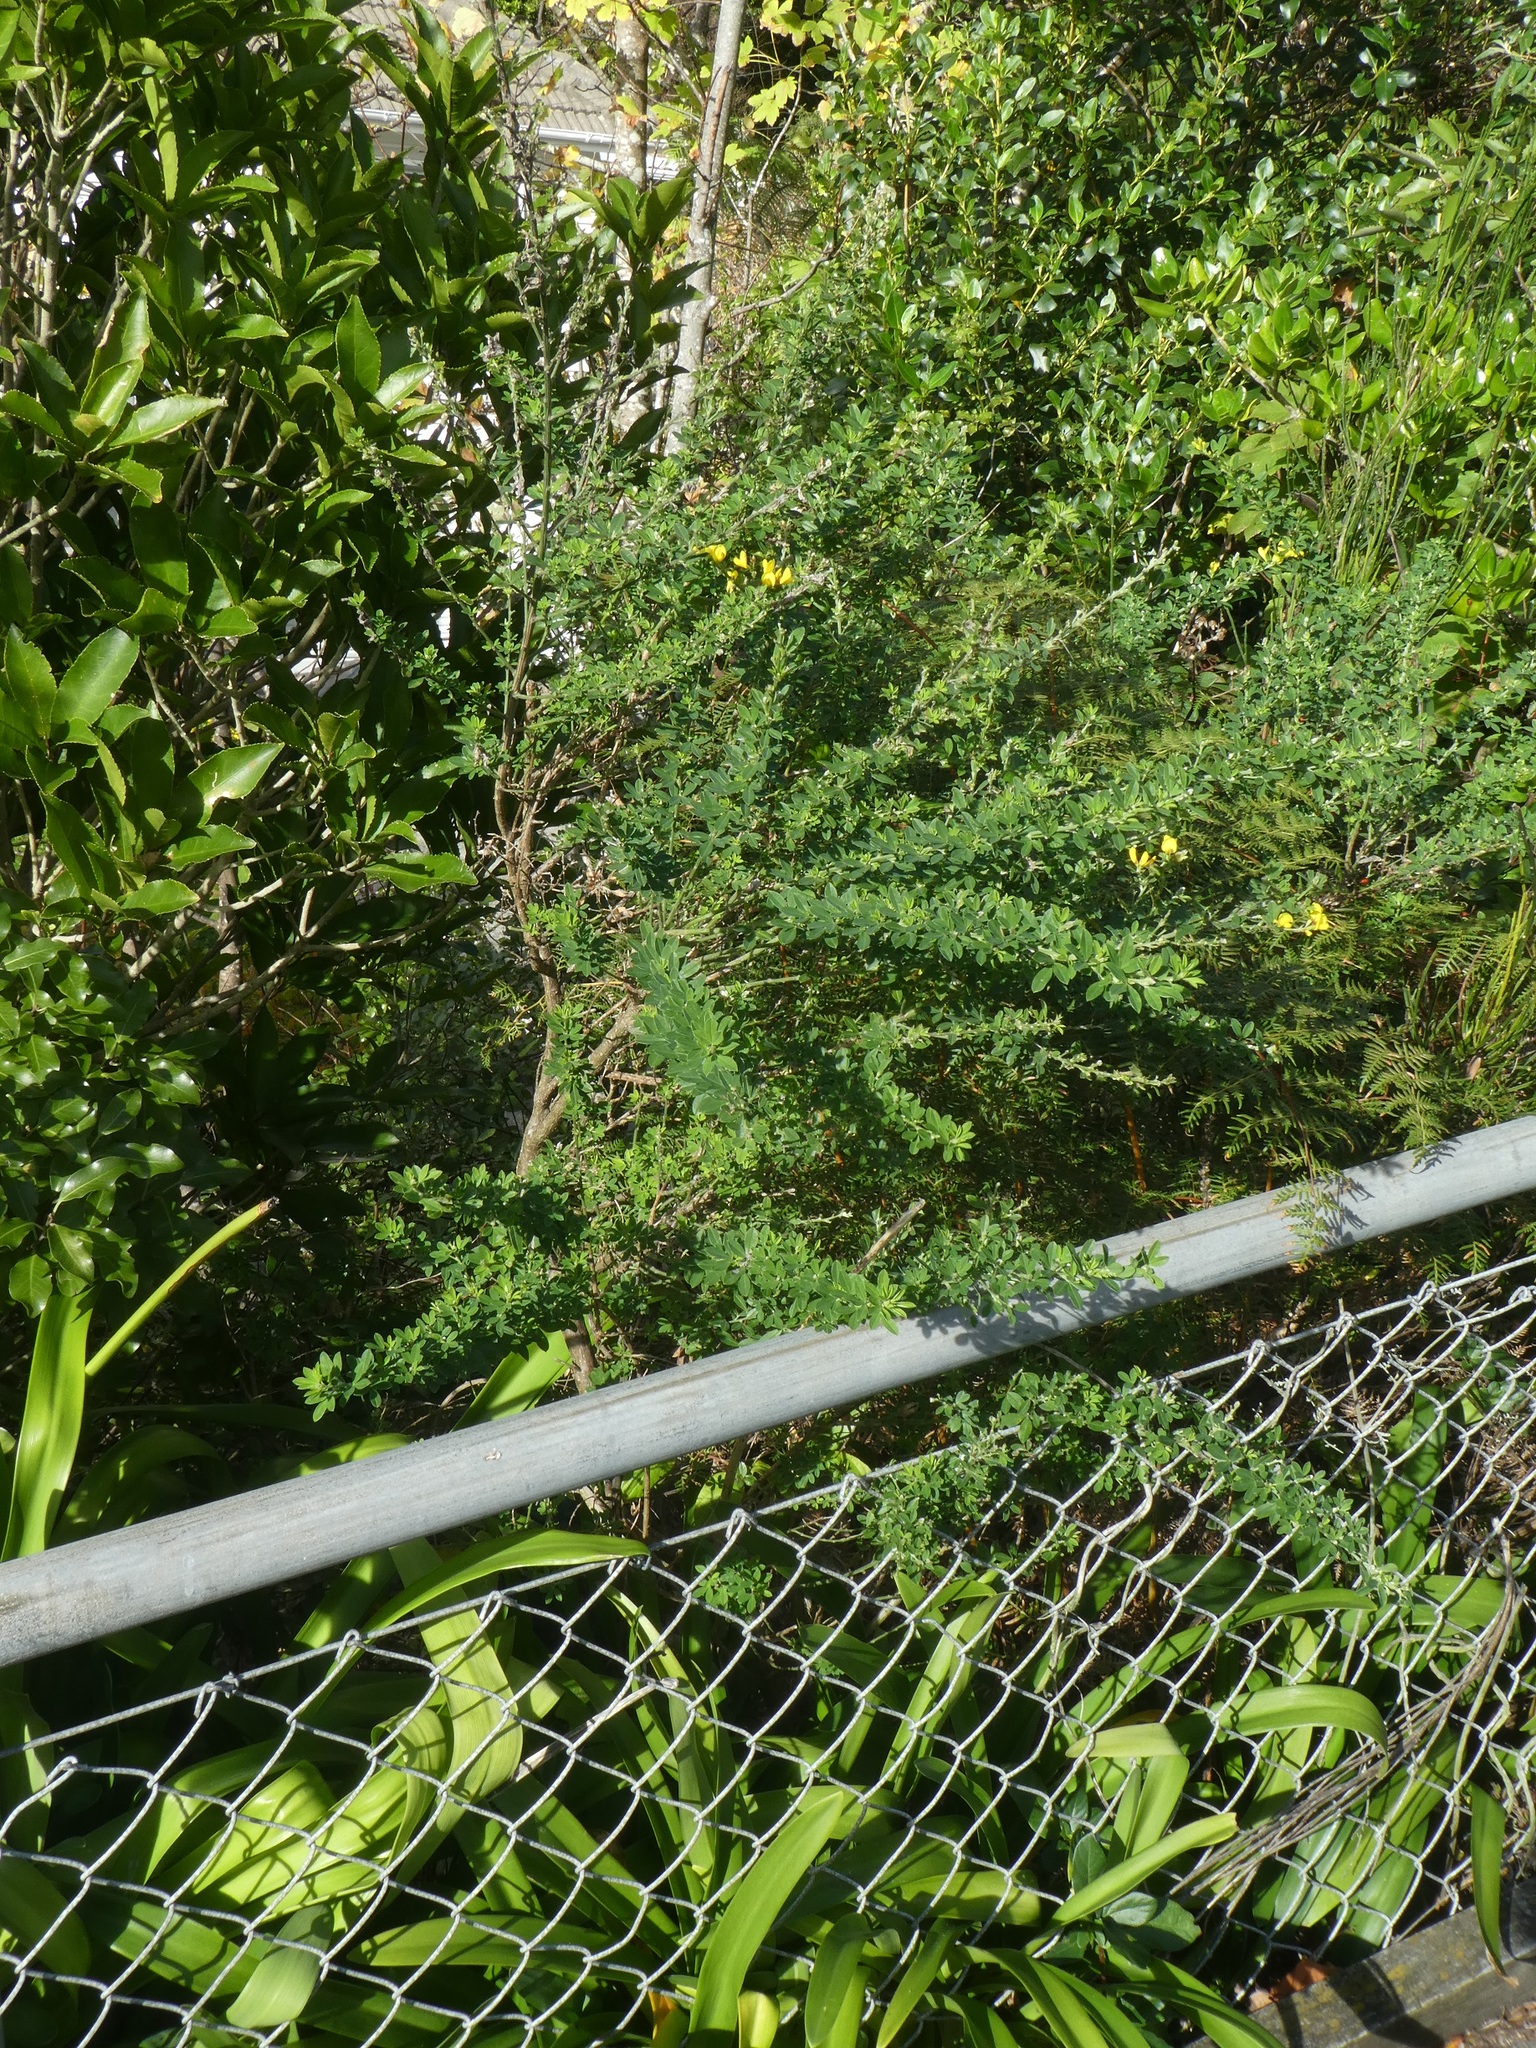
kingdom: Plantae
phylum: Tracheophyta
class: Magnoliopsida
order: Fabales
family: Fabaceae
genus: Genista
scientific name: Genista stenopetala
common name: Leafy broom
